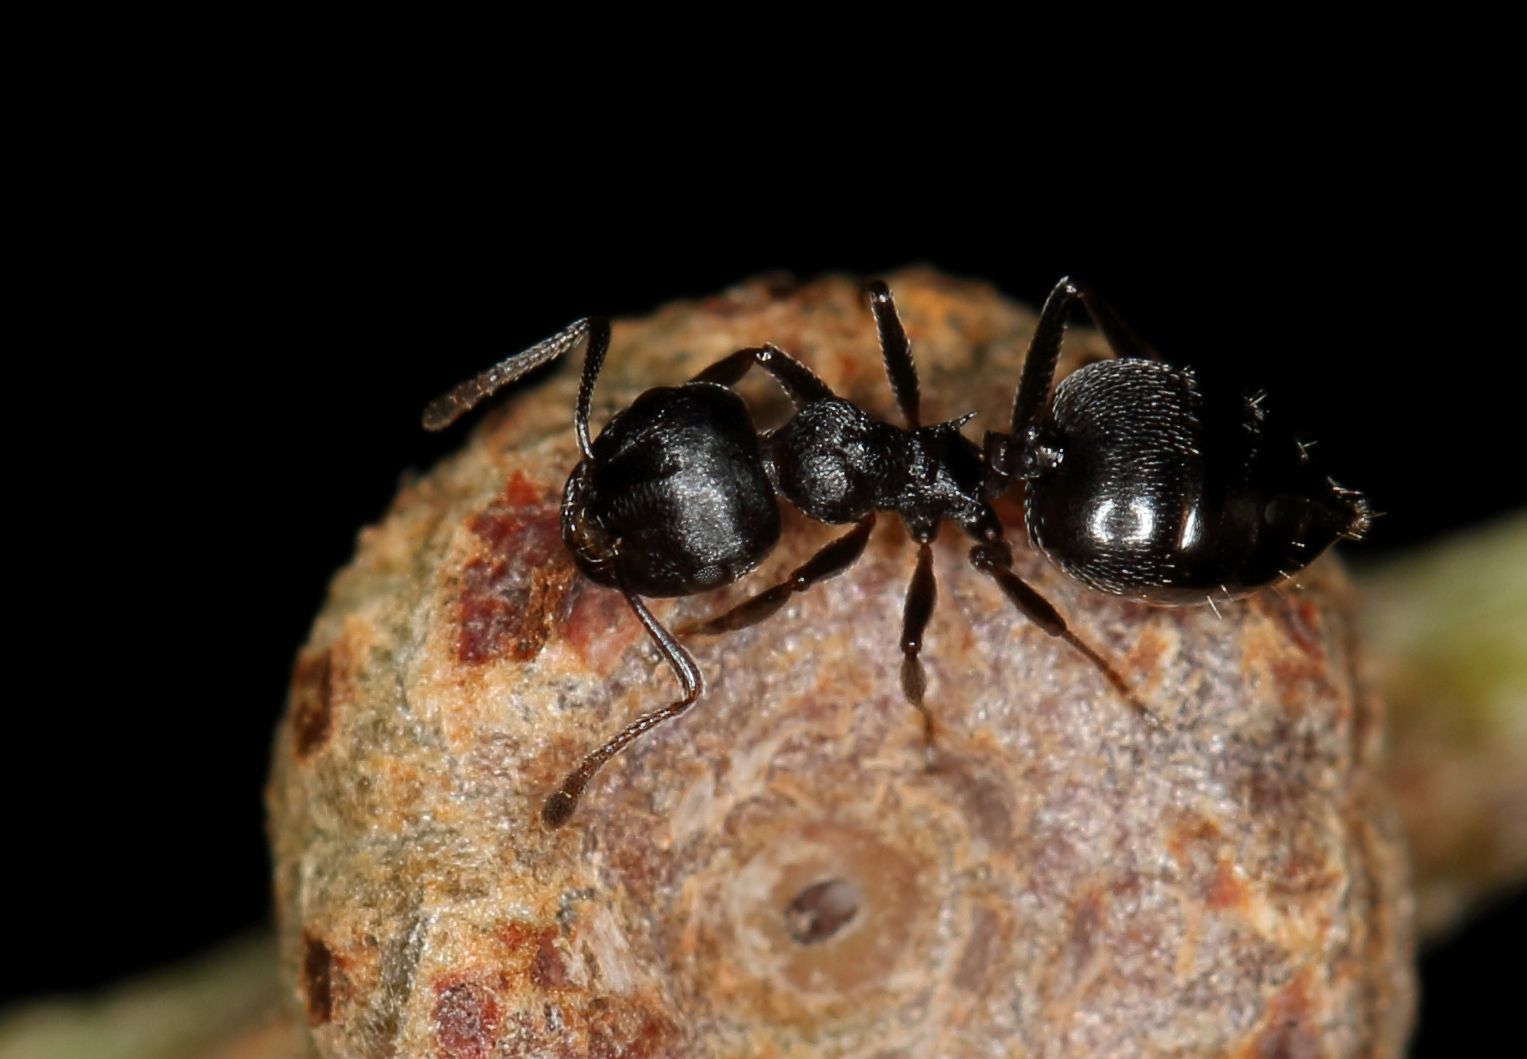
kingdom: Animalia
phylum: Arthropoda
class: Insecta
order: Hymenoptera
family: Formicidae
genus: Crematogaster
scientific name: Crematogaster monticola
